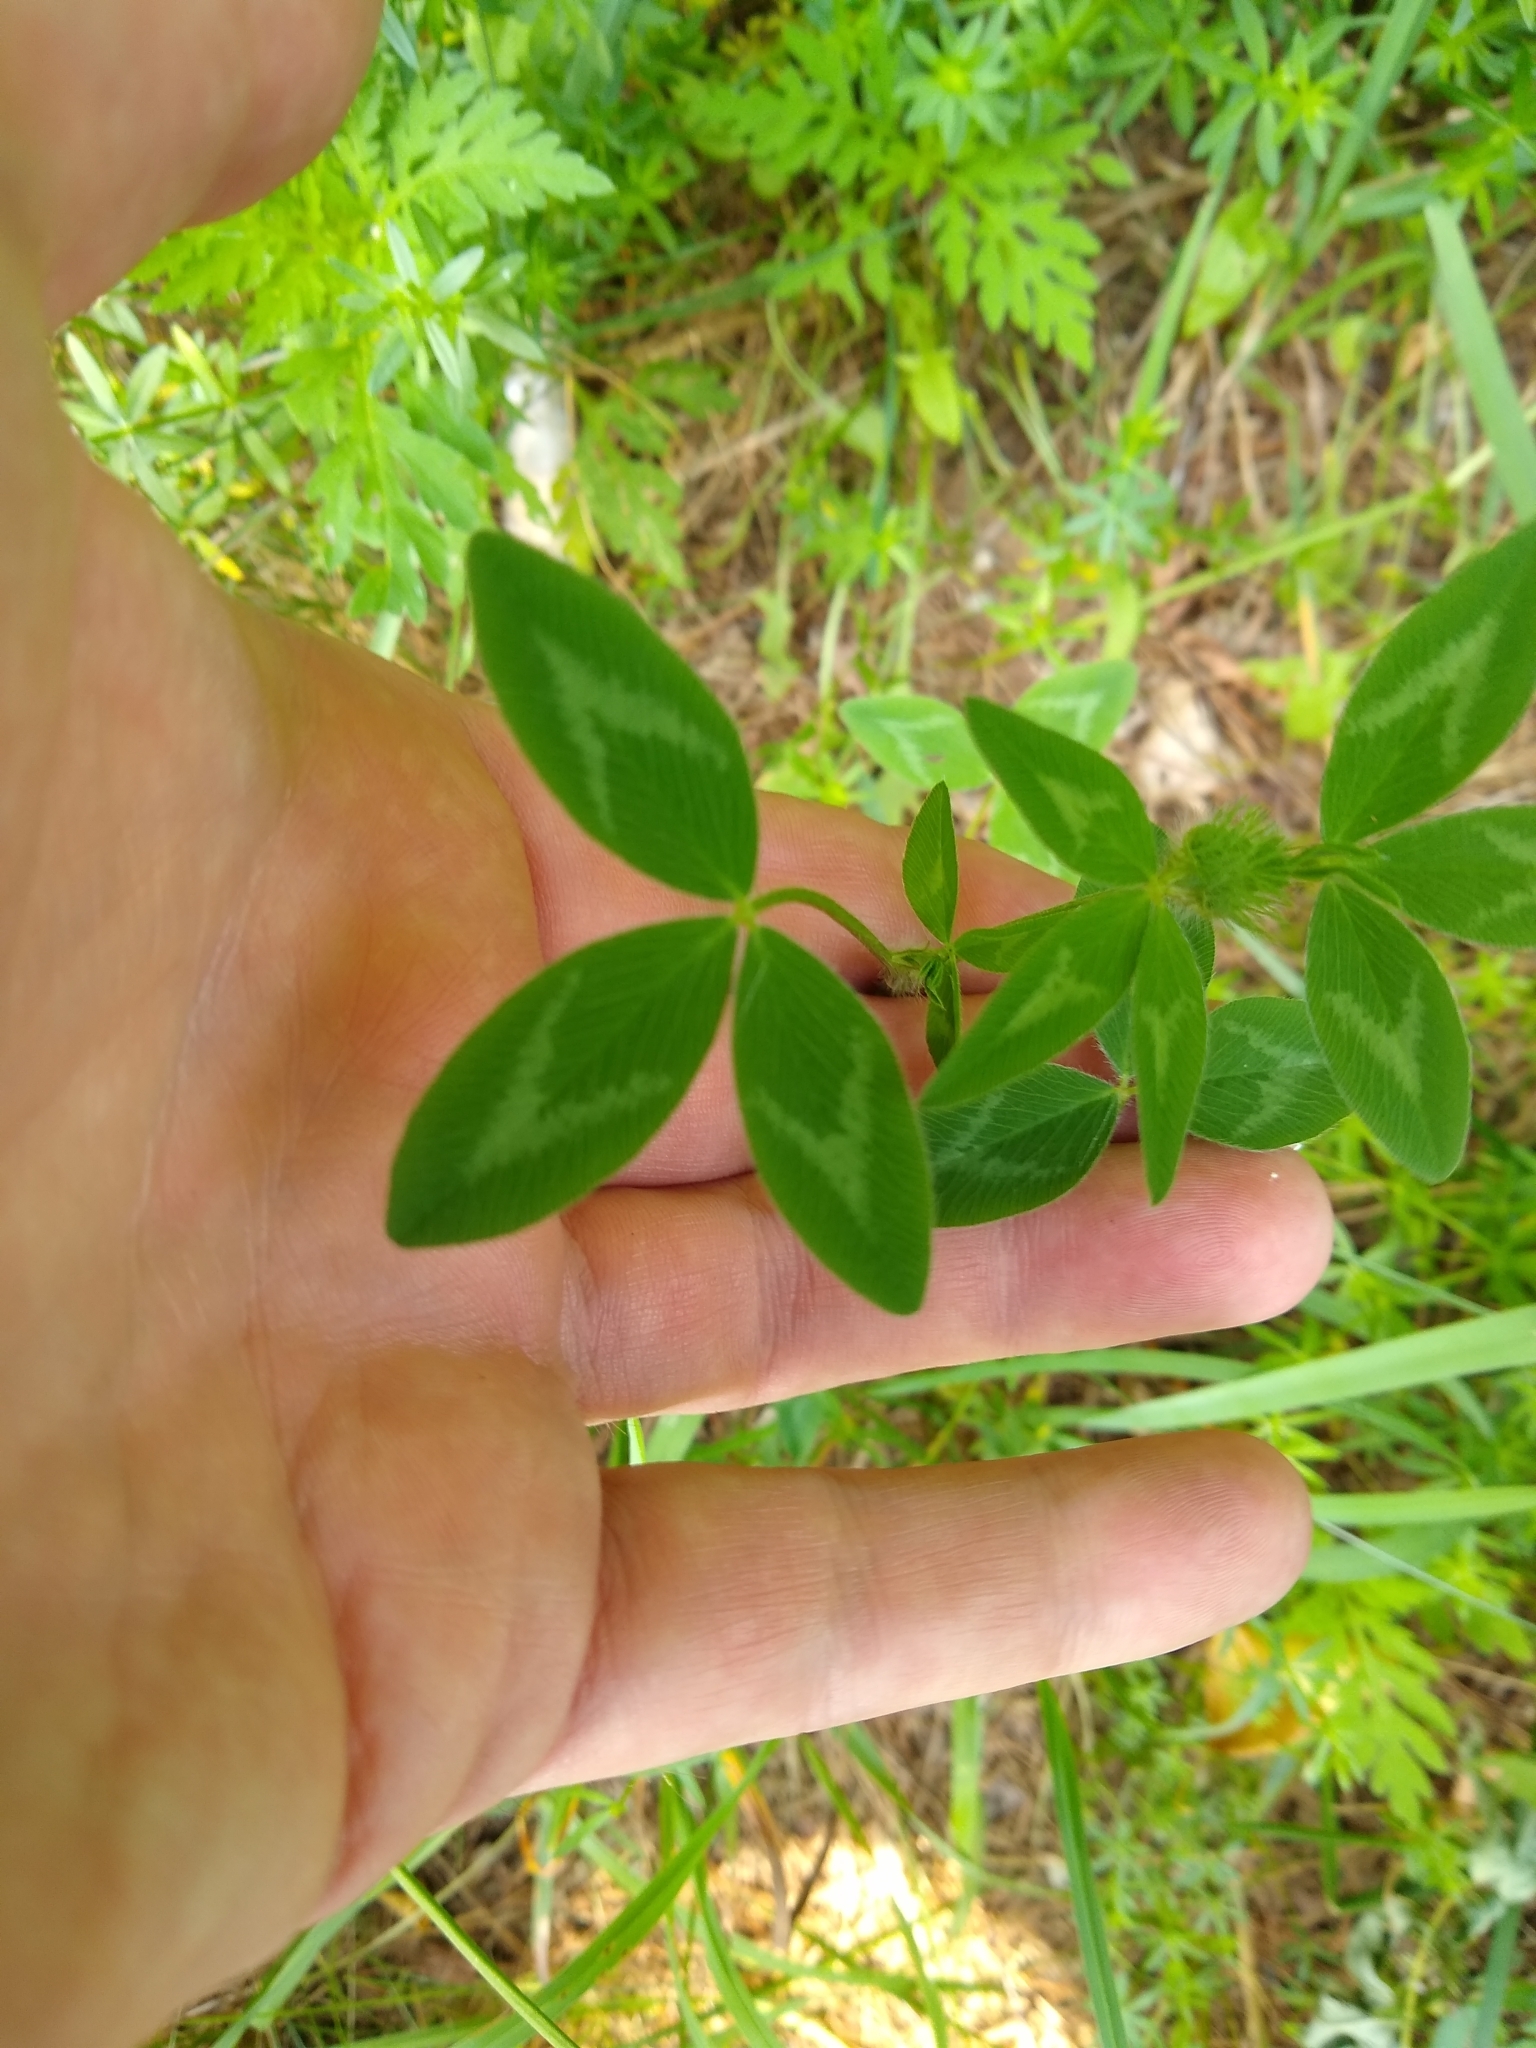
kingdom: Plantae
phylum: Tracheophyta
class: Magnoliopsida
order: Fabales
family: Fabaceae
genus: Trifolium
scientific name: Trifolium pratense
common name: Red clover
